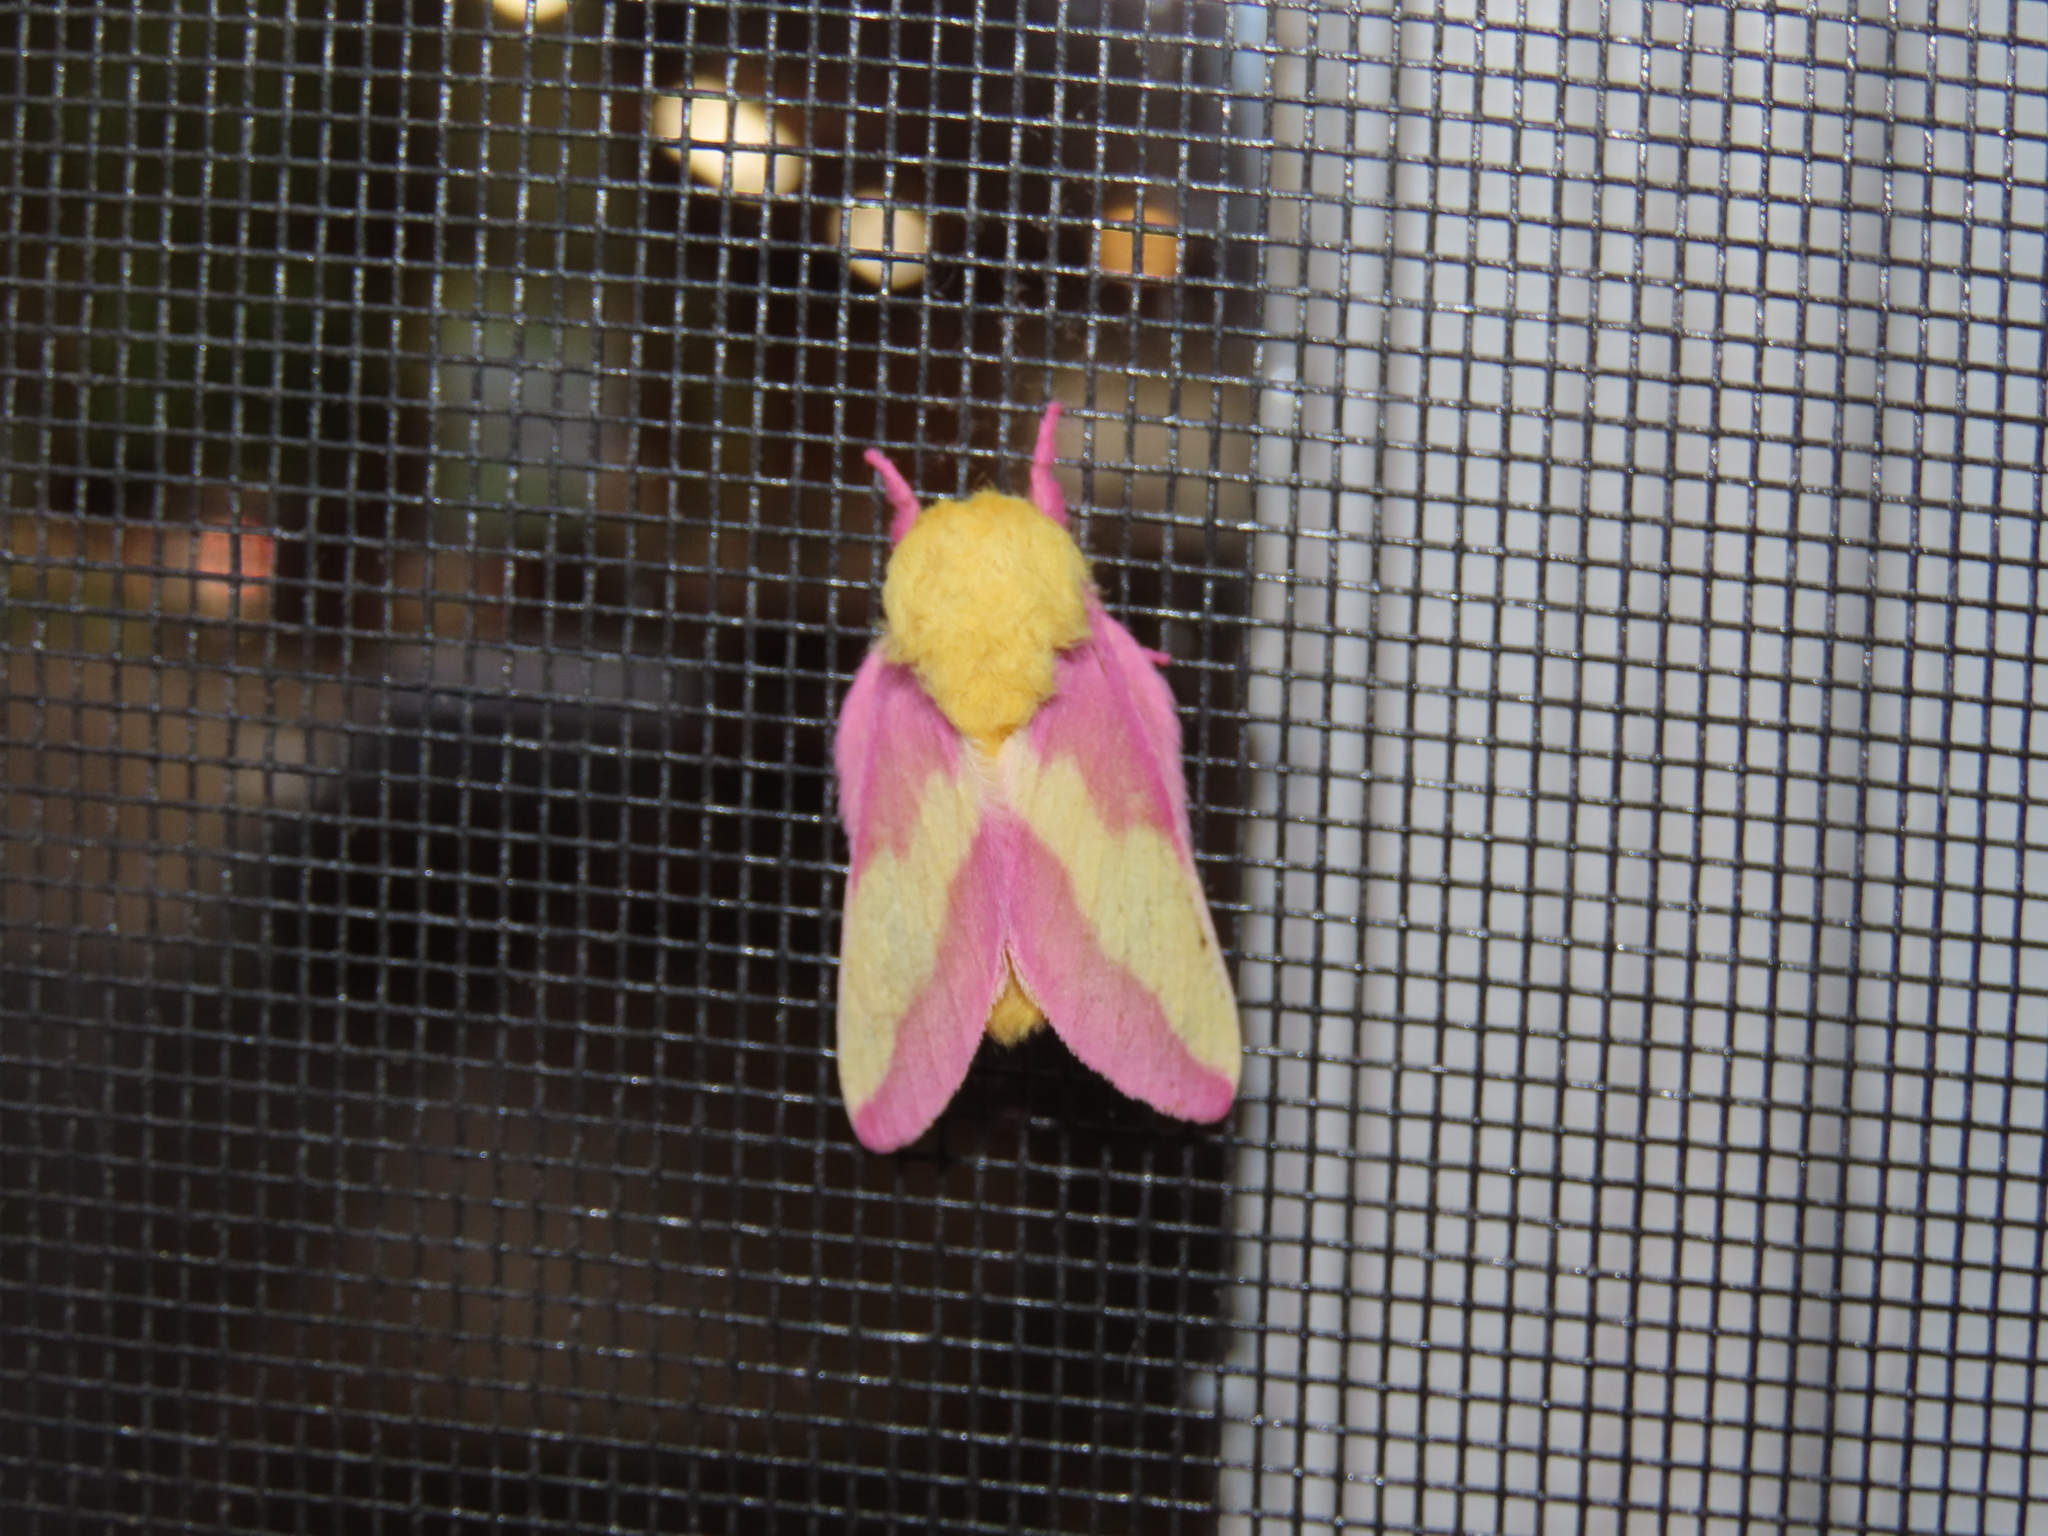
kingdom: Animalia
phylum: Arthropoda
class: Insecta
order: Lepidoptera
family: Saturniidae
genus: Dryocampa
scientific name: Dryocampa rubicunda
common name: Rosy maple moth
